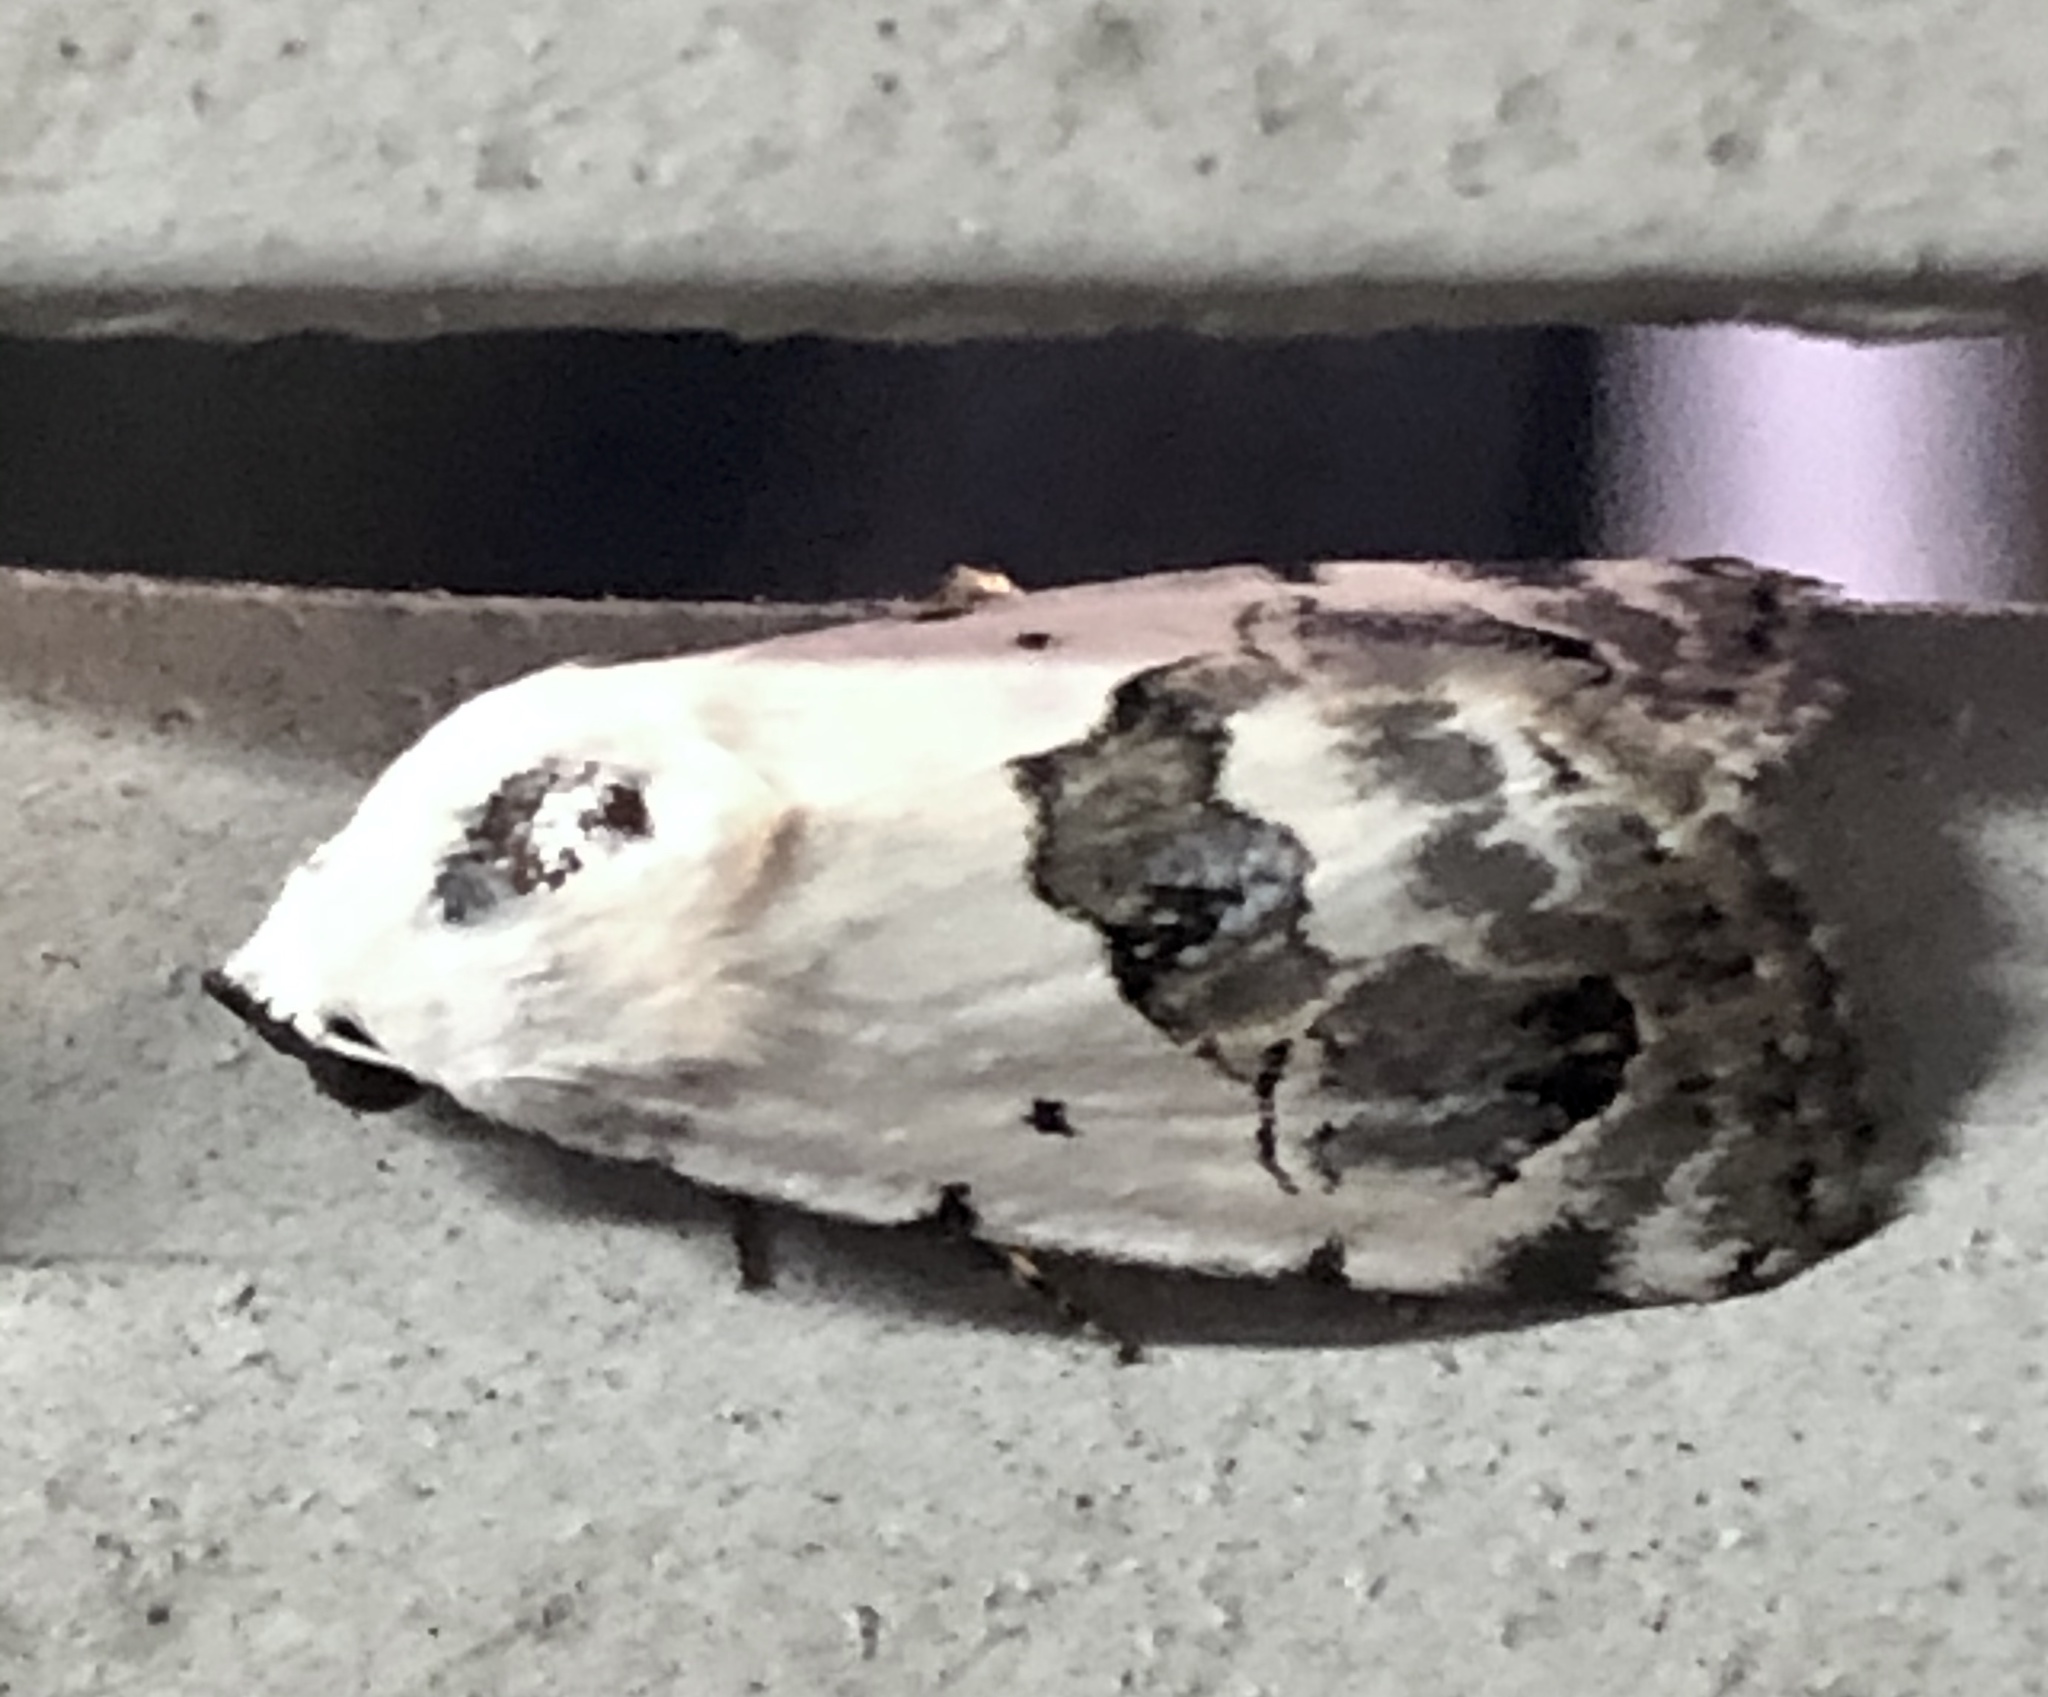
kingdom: Animalia
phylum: Arthropoda
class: Insecta
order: Lepidoptera
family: Nolidae
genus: Armactica
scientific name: Armactica conchidia
